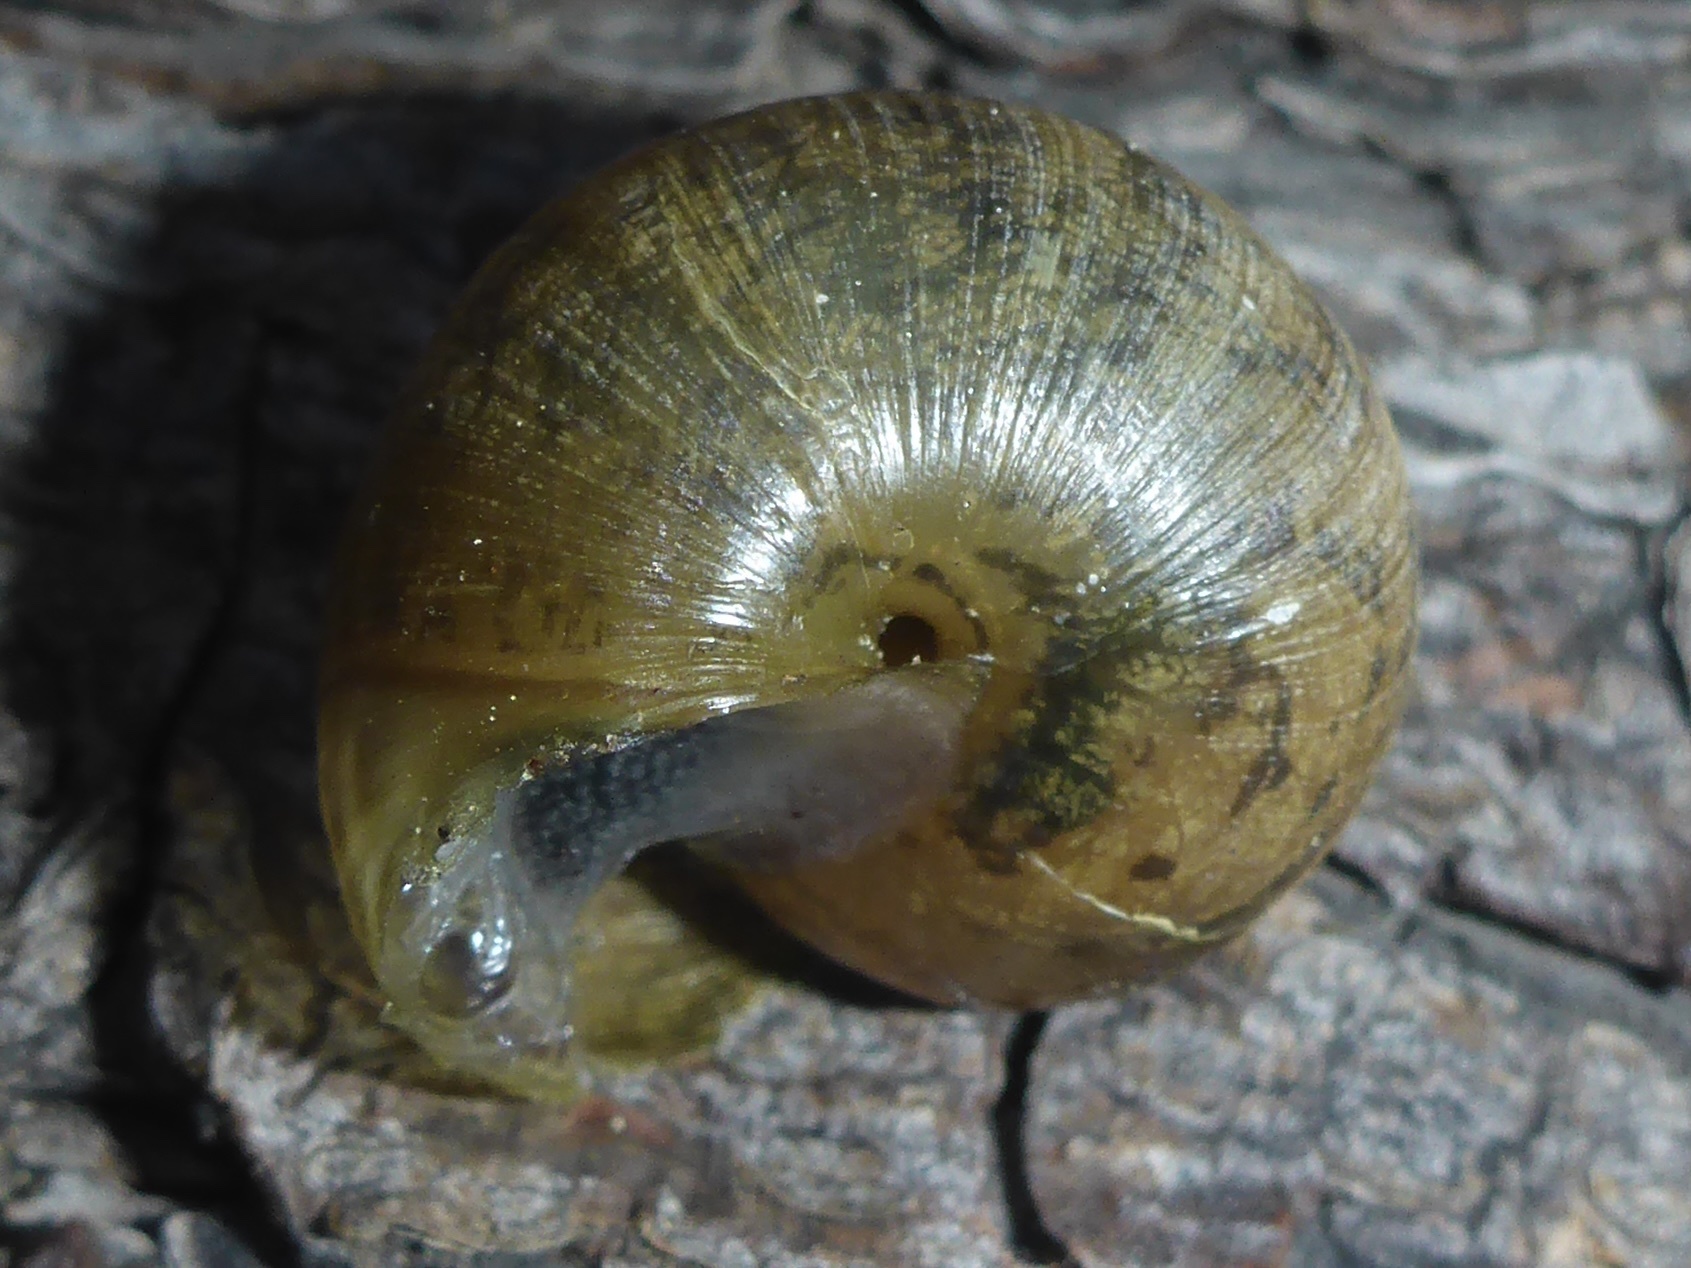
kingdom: Animalia
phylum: Mollusca
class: Gastropoda
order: Stylommatophora
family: Xanthonychidae
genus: Helminthoglypta
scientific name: Helminthoglypta nickliniana
